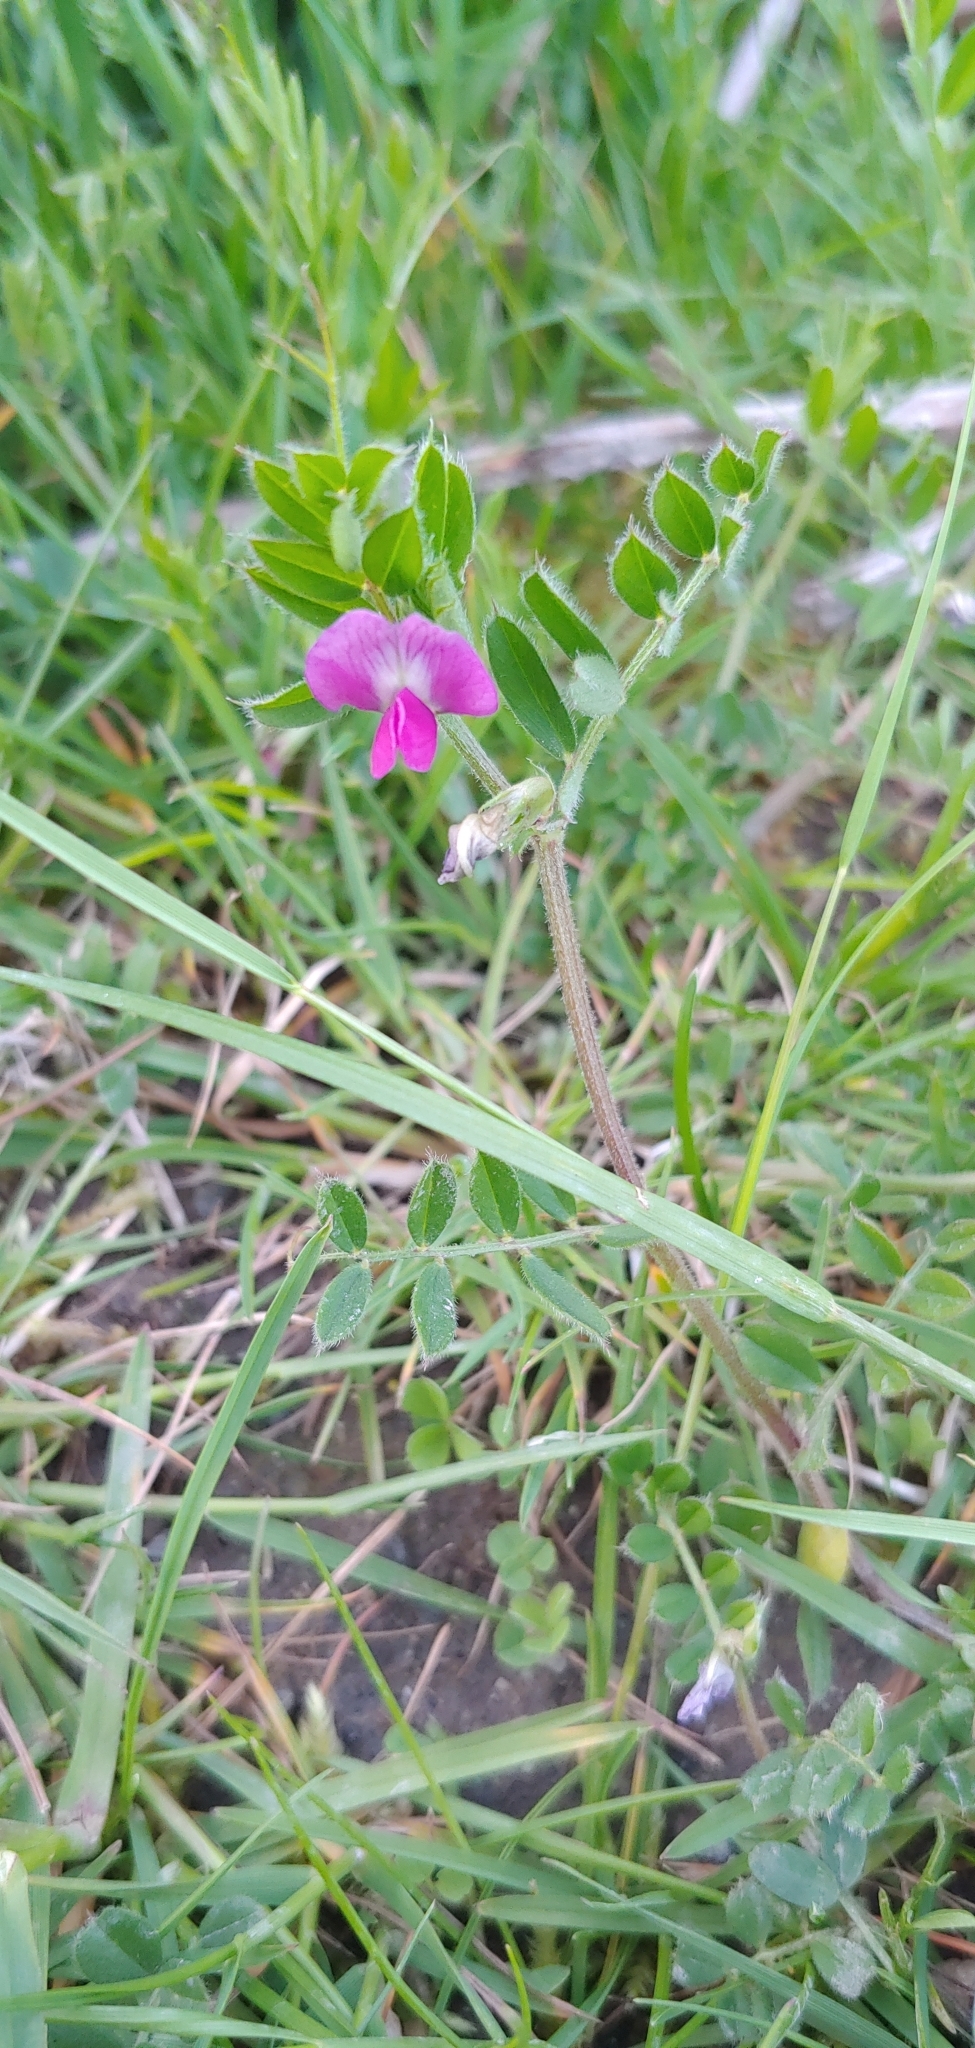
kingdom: Plantae
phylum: Tracheophyta
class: Magnoliopsida
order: Fabales
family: Fabaceae
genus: Vicia
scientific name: Vicia sativa
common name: Garden vetch
